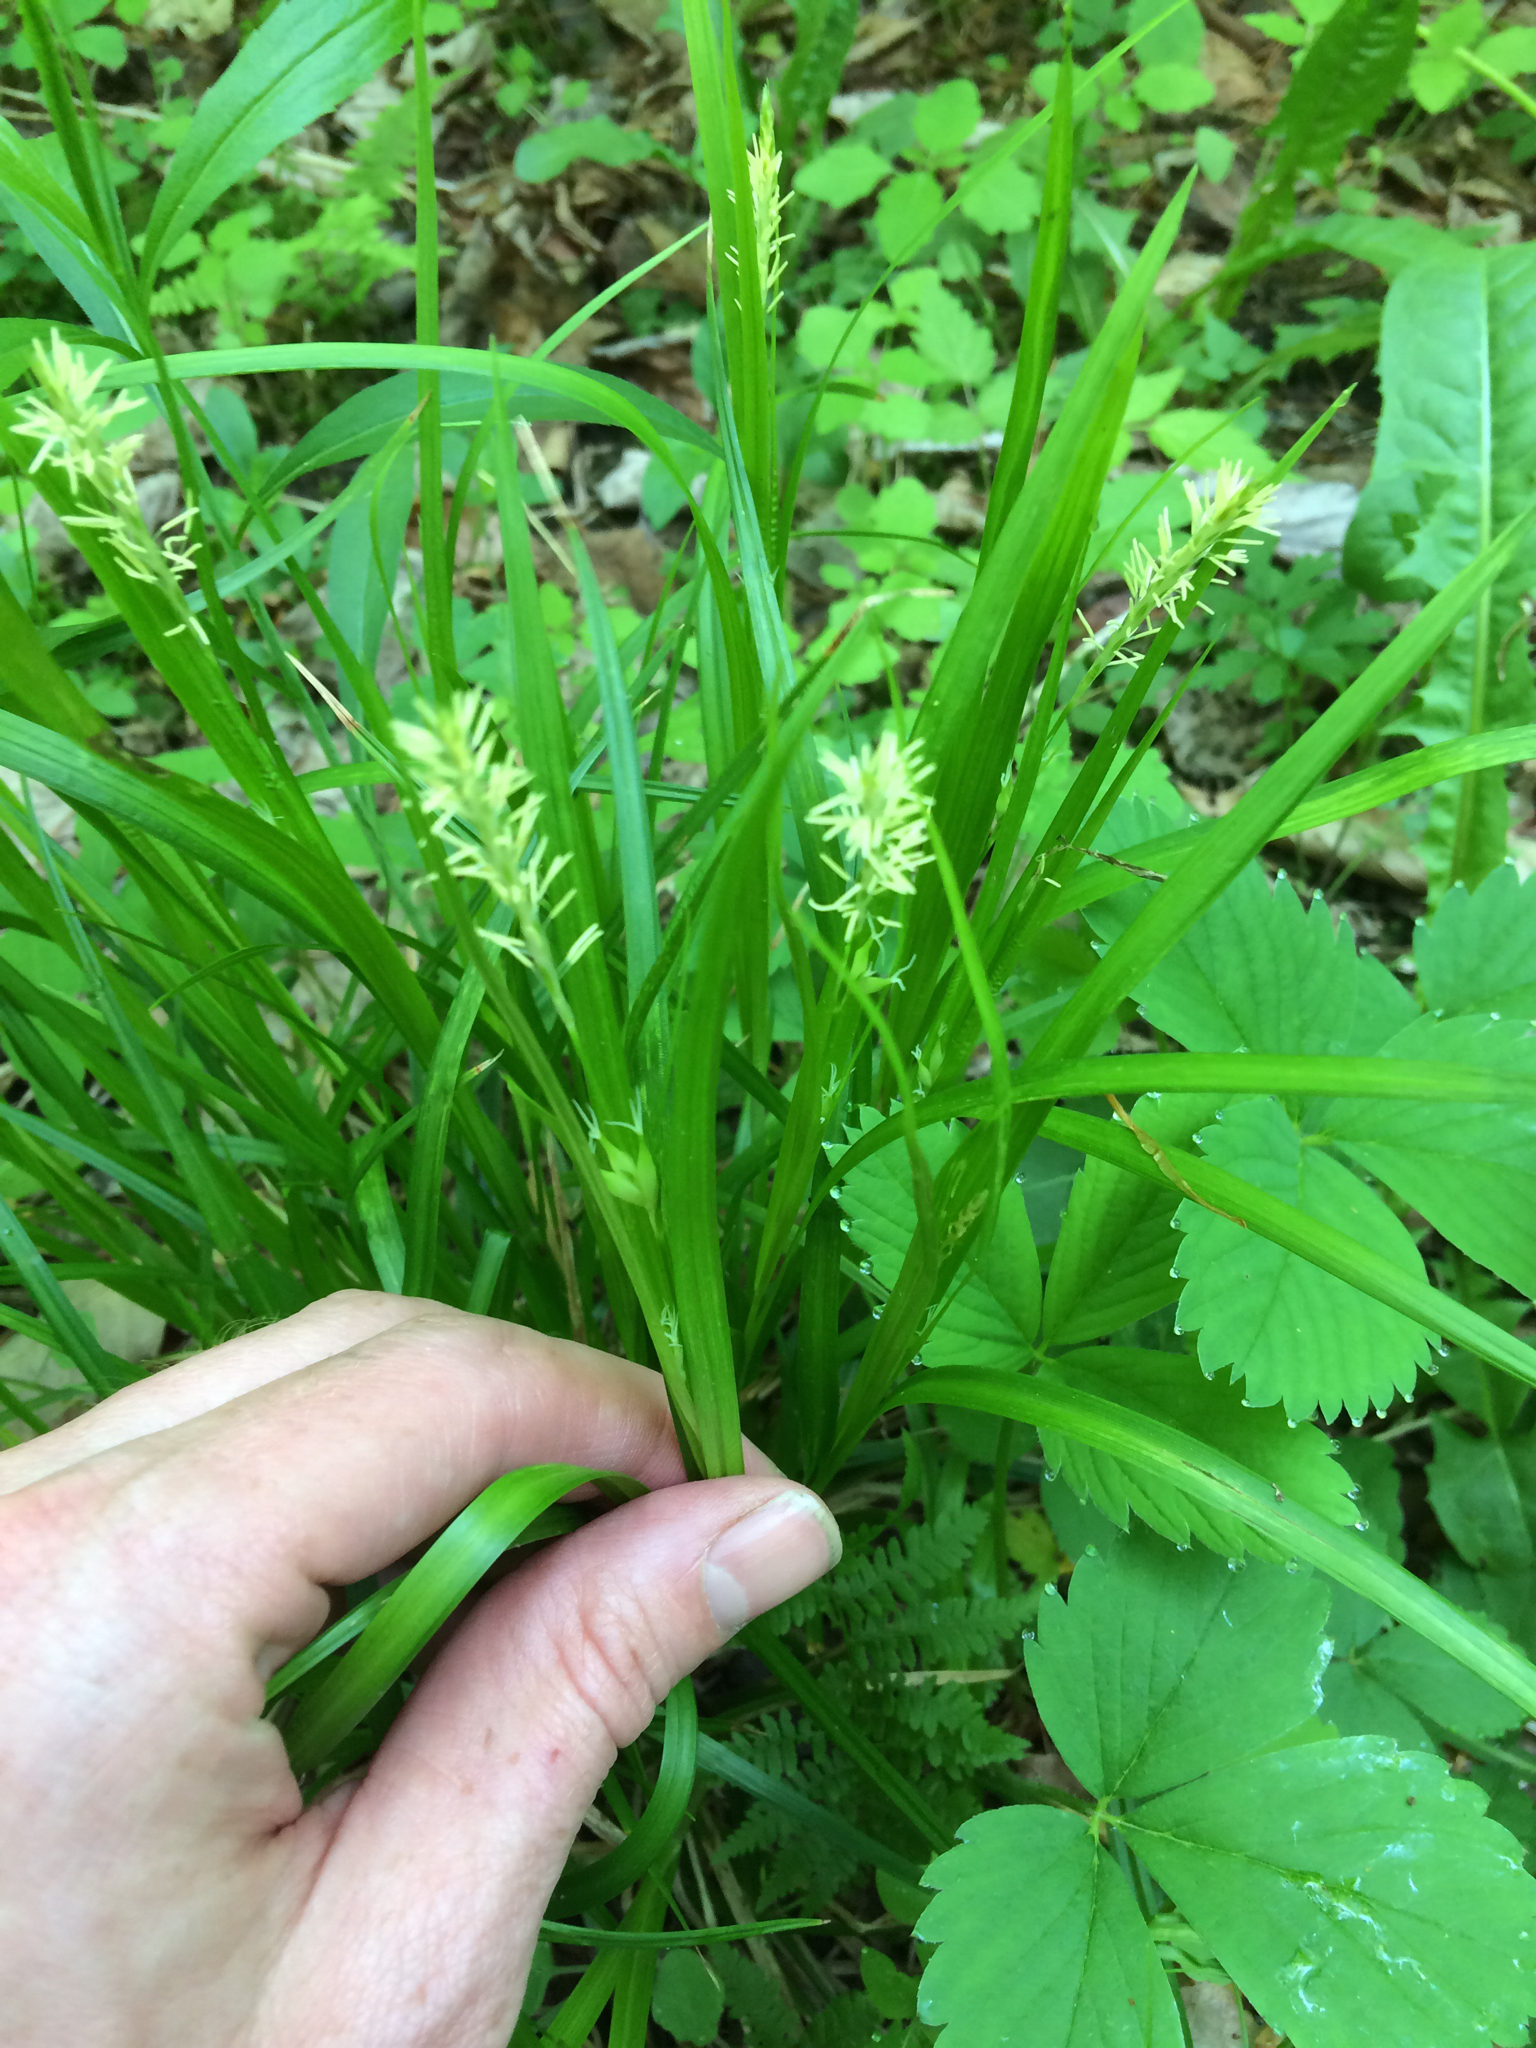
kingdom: Plantae
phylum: Tracheophyta
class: Liliopsida
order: Poales
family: Cyperaceae
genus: Carex
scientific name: Carex intumescens
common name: Greater bladder sedge
